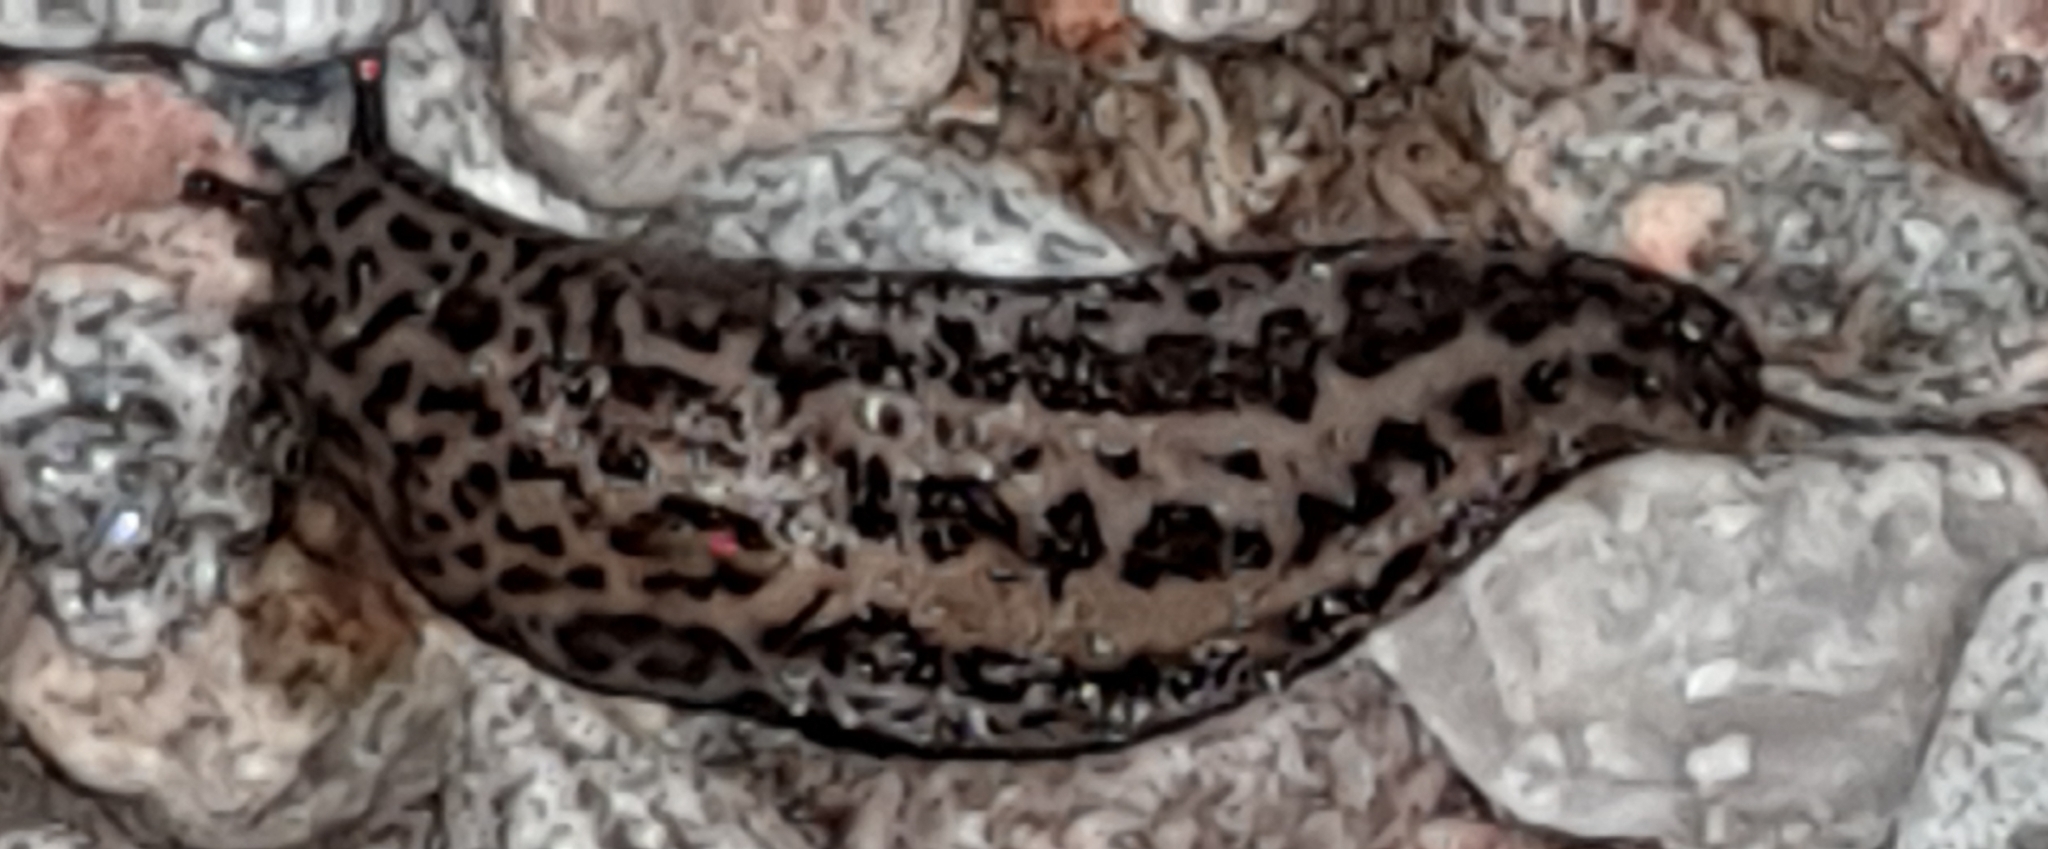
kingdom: Animalia
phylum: Mollusca
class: Gastropoda
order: Stylommatophora
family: Limacidae
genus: Limax
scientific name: Limax maximus
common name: Great grey slug
